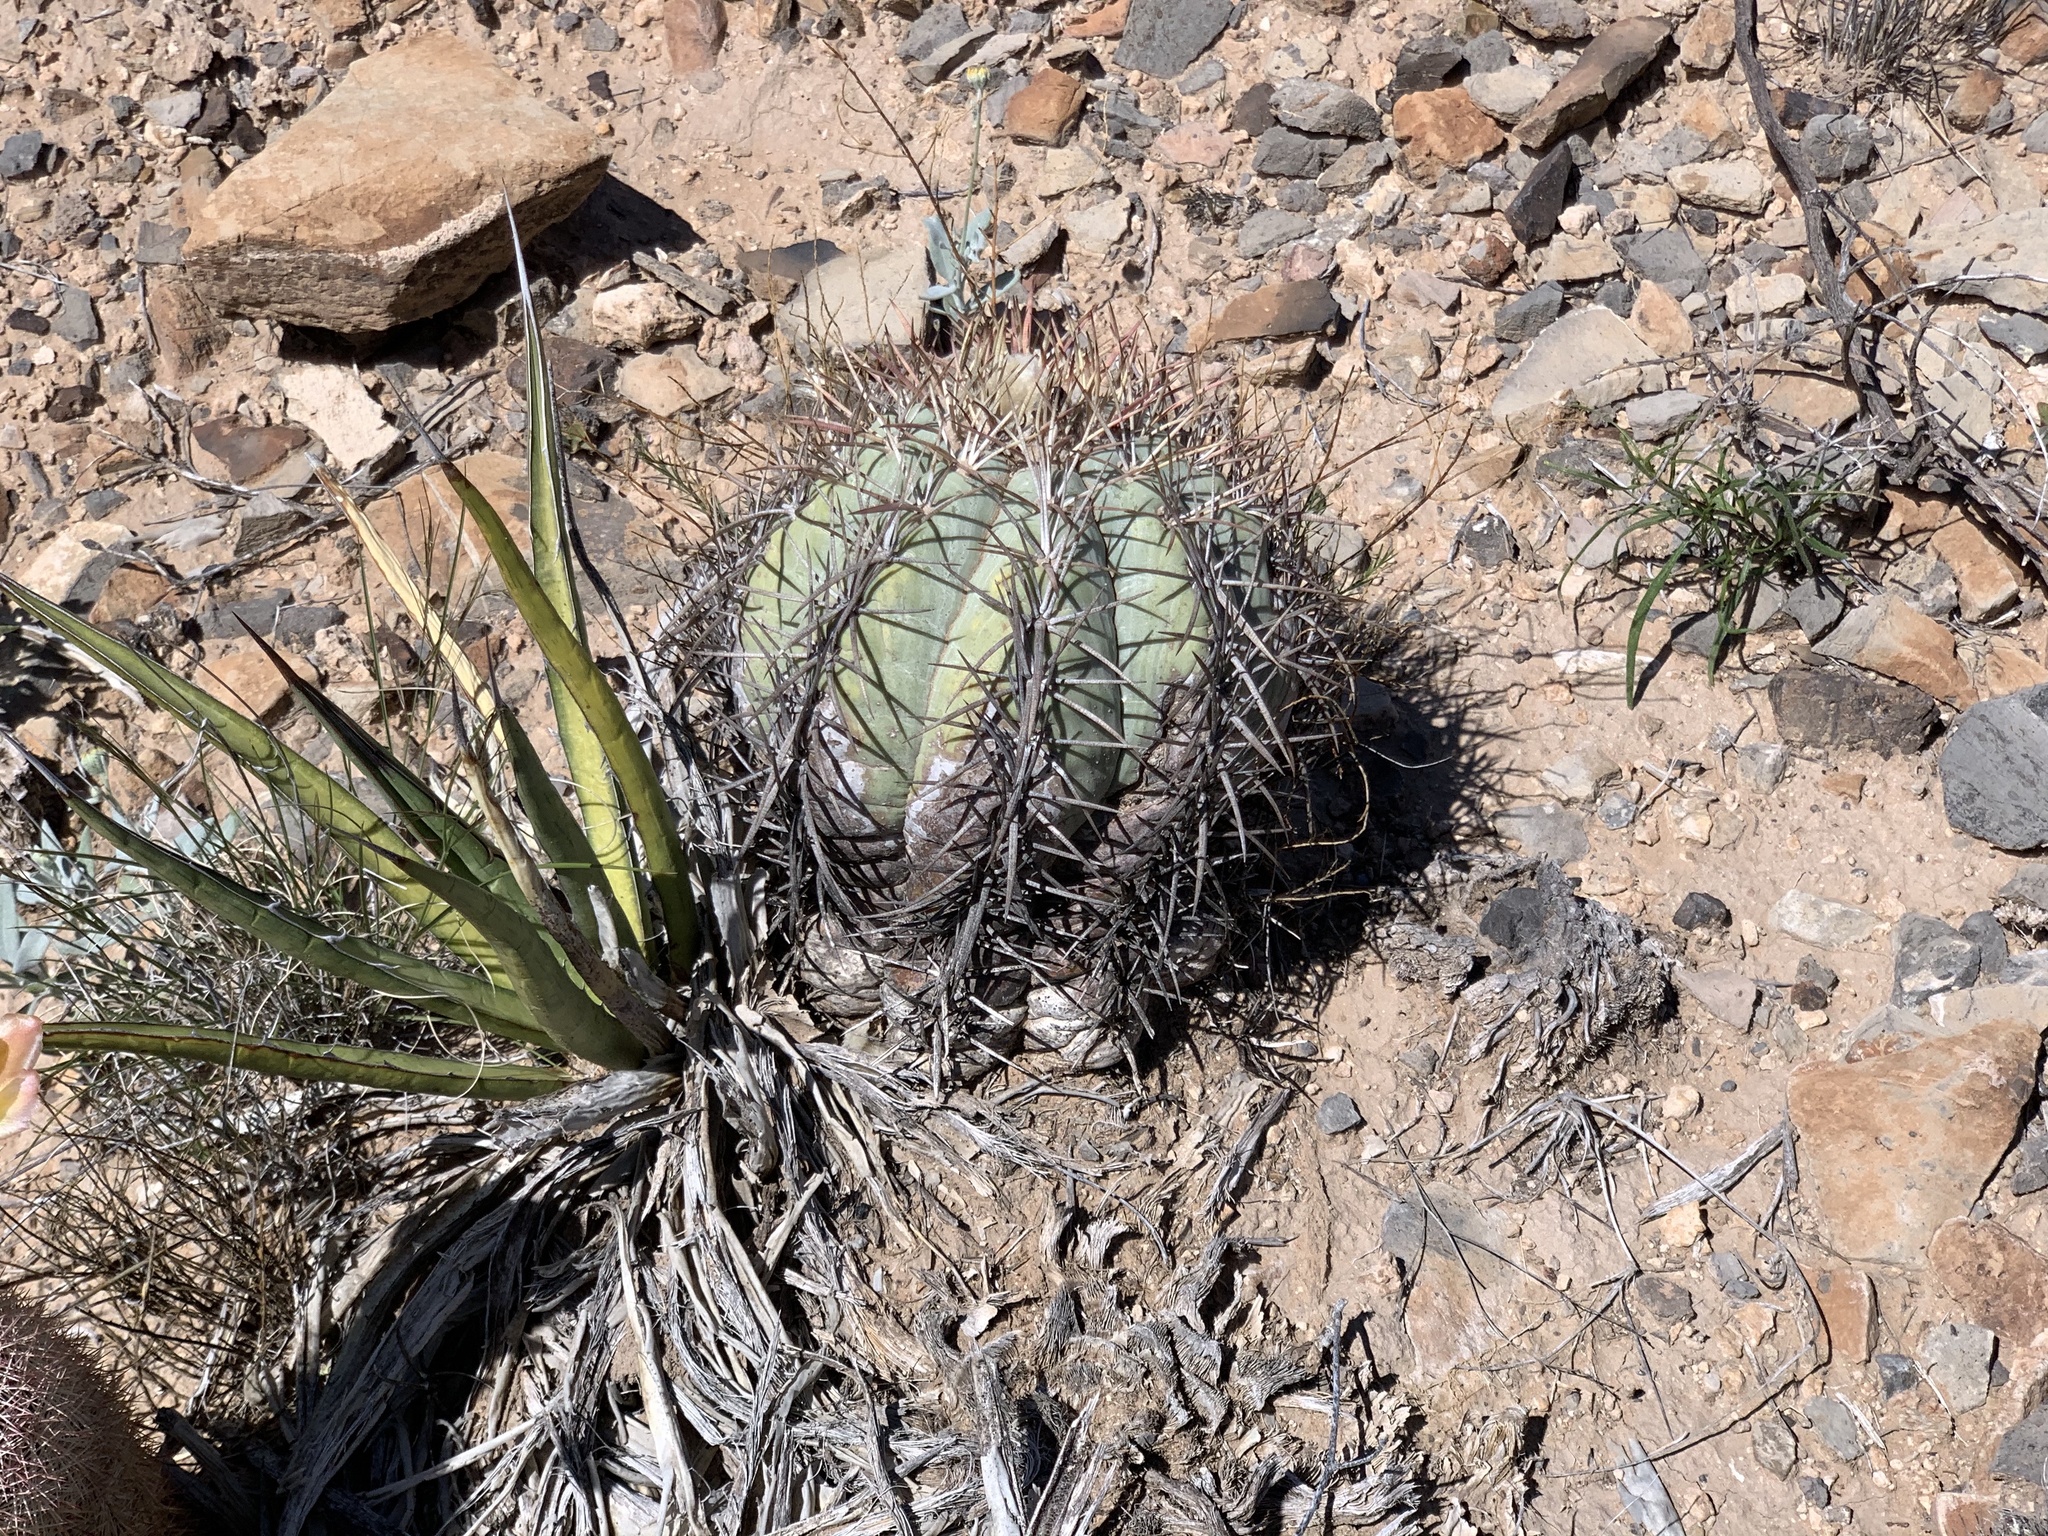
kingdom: Plantae
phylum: Tracheophyta
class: Magnoliopsida
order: Caryophyllales
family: Cactaceae
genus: Echinocactus
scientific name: Echinocactus horizonthalonius
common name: Devilshead
